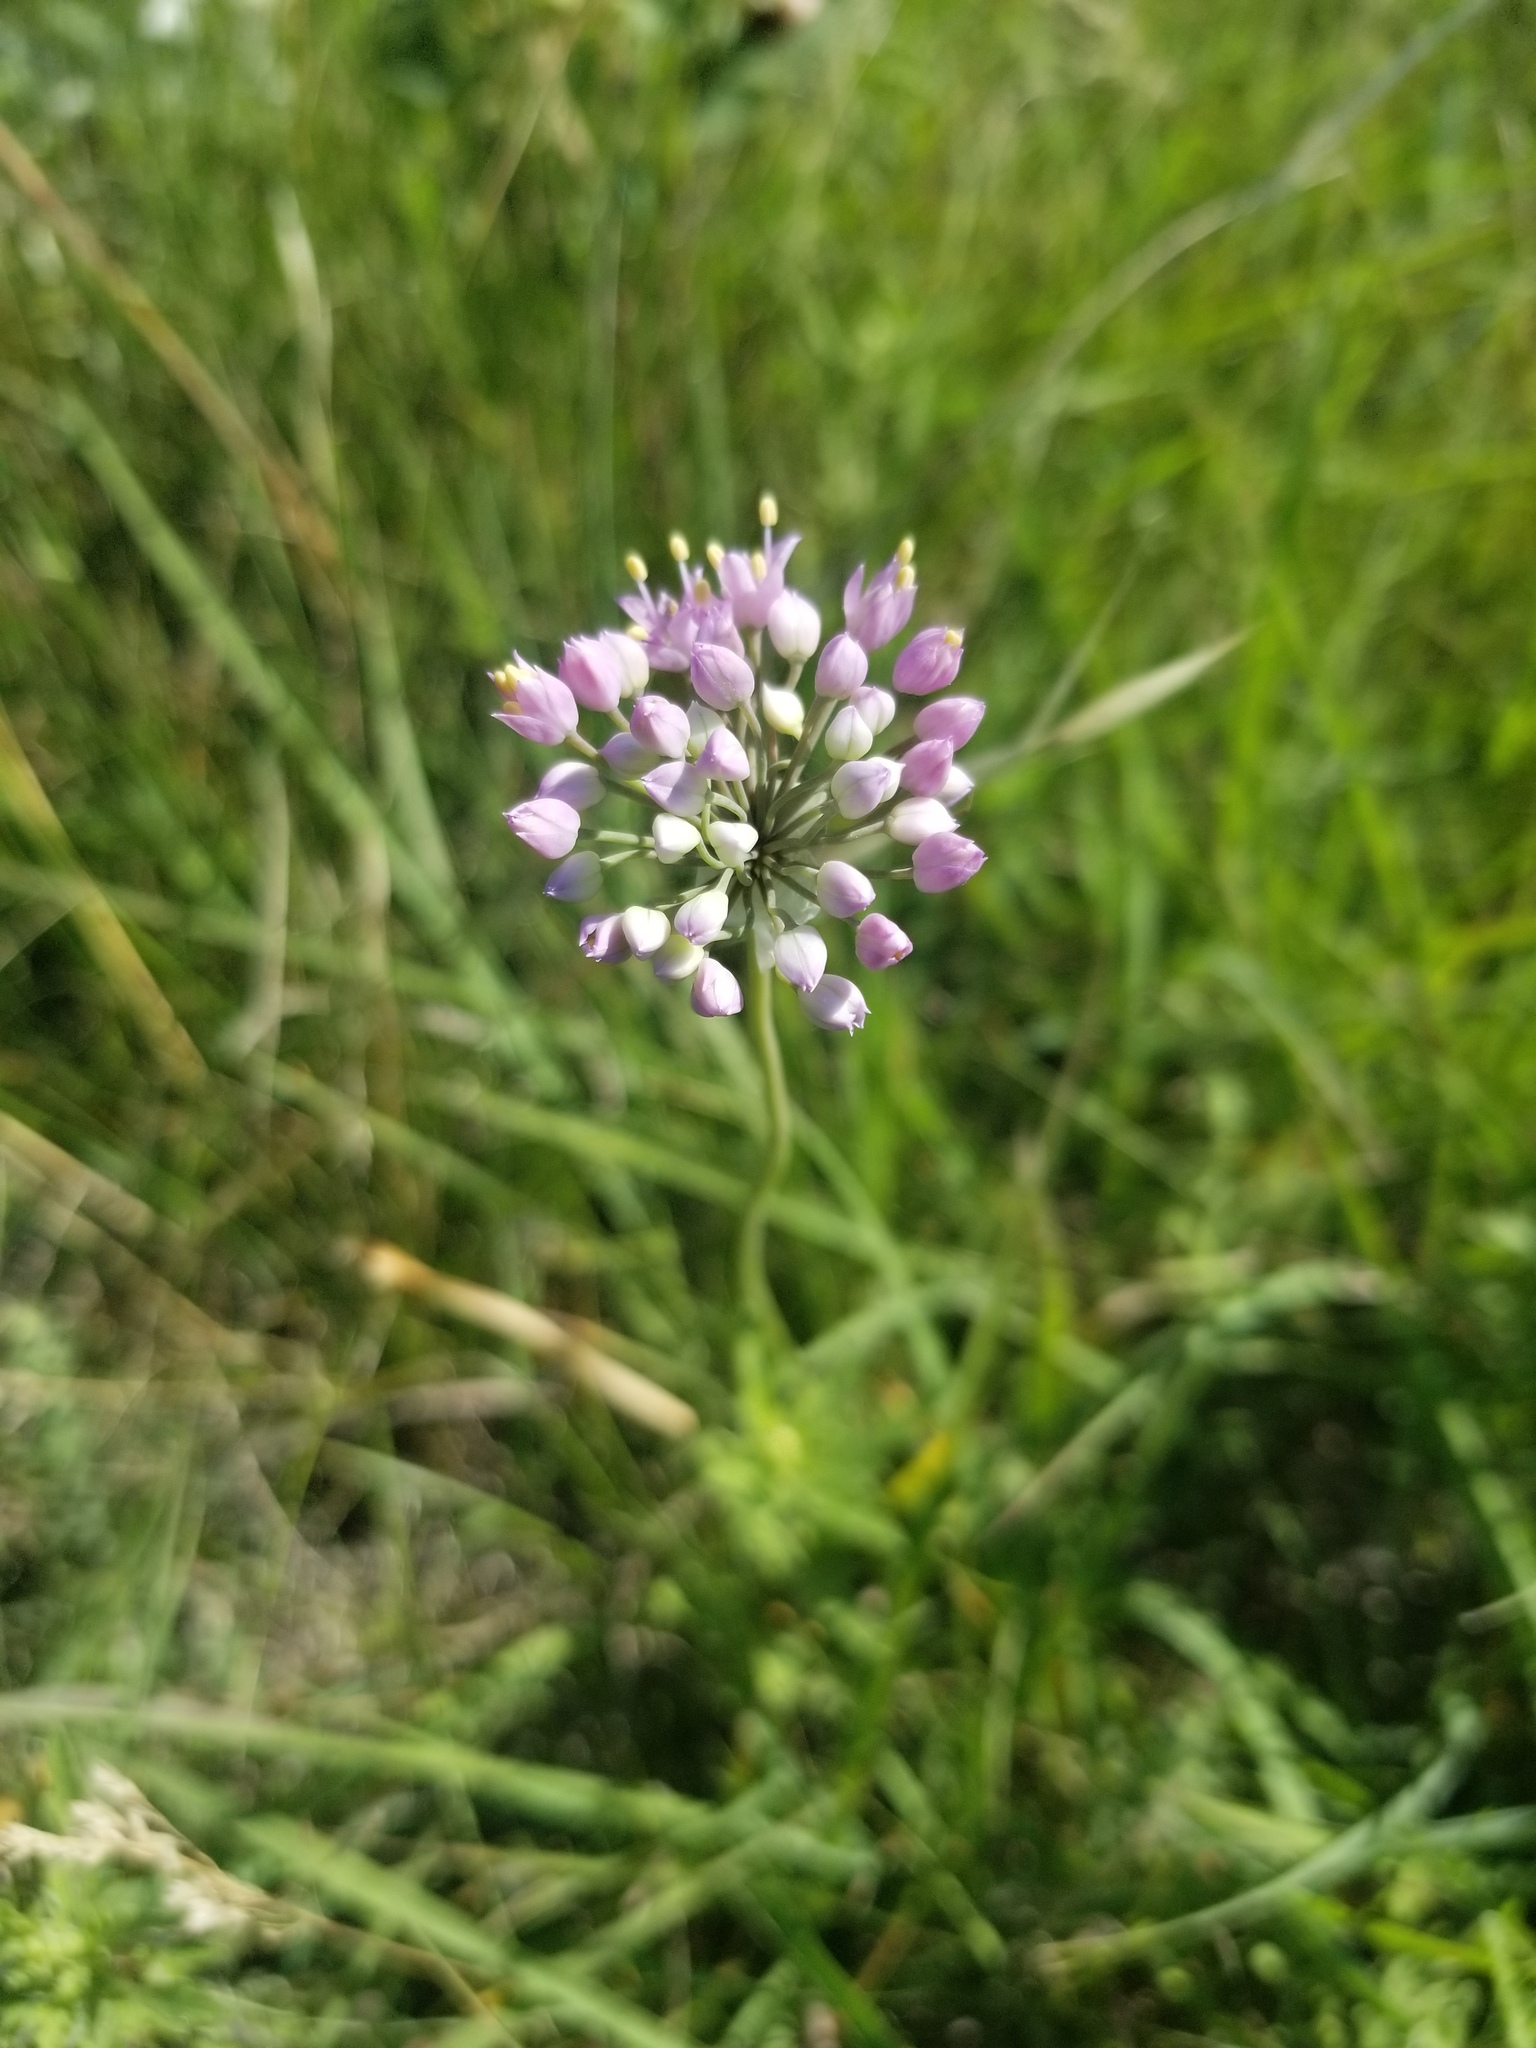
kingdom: Plantae
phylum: Tracheophyta
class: Liliopsida
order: Asparagales
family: Amaryllidaceae
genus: Allium
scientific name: Allium stellatum
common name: Autumn onion
